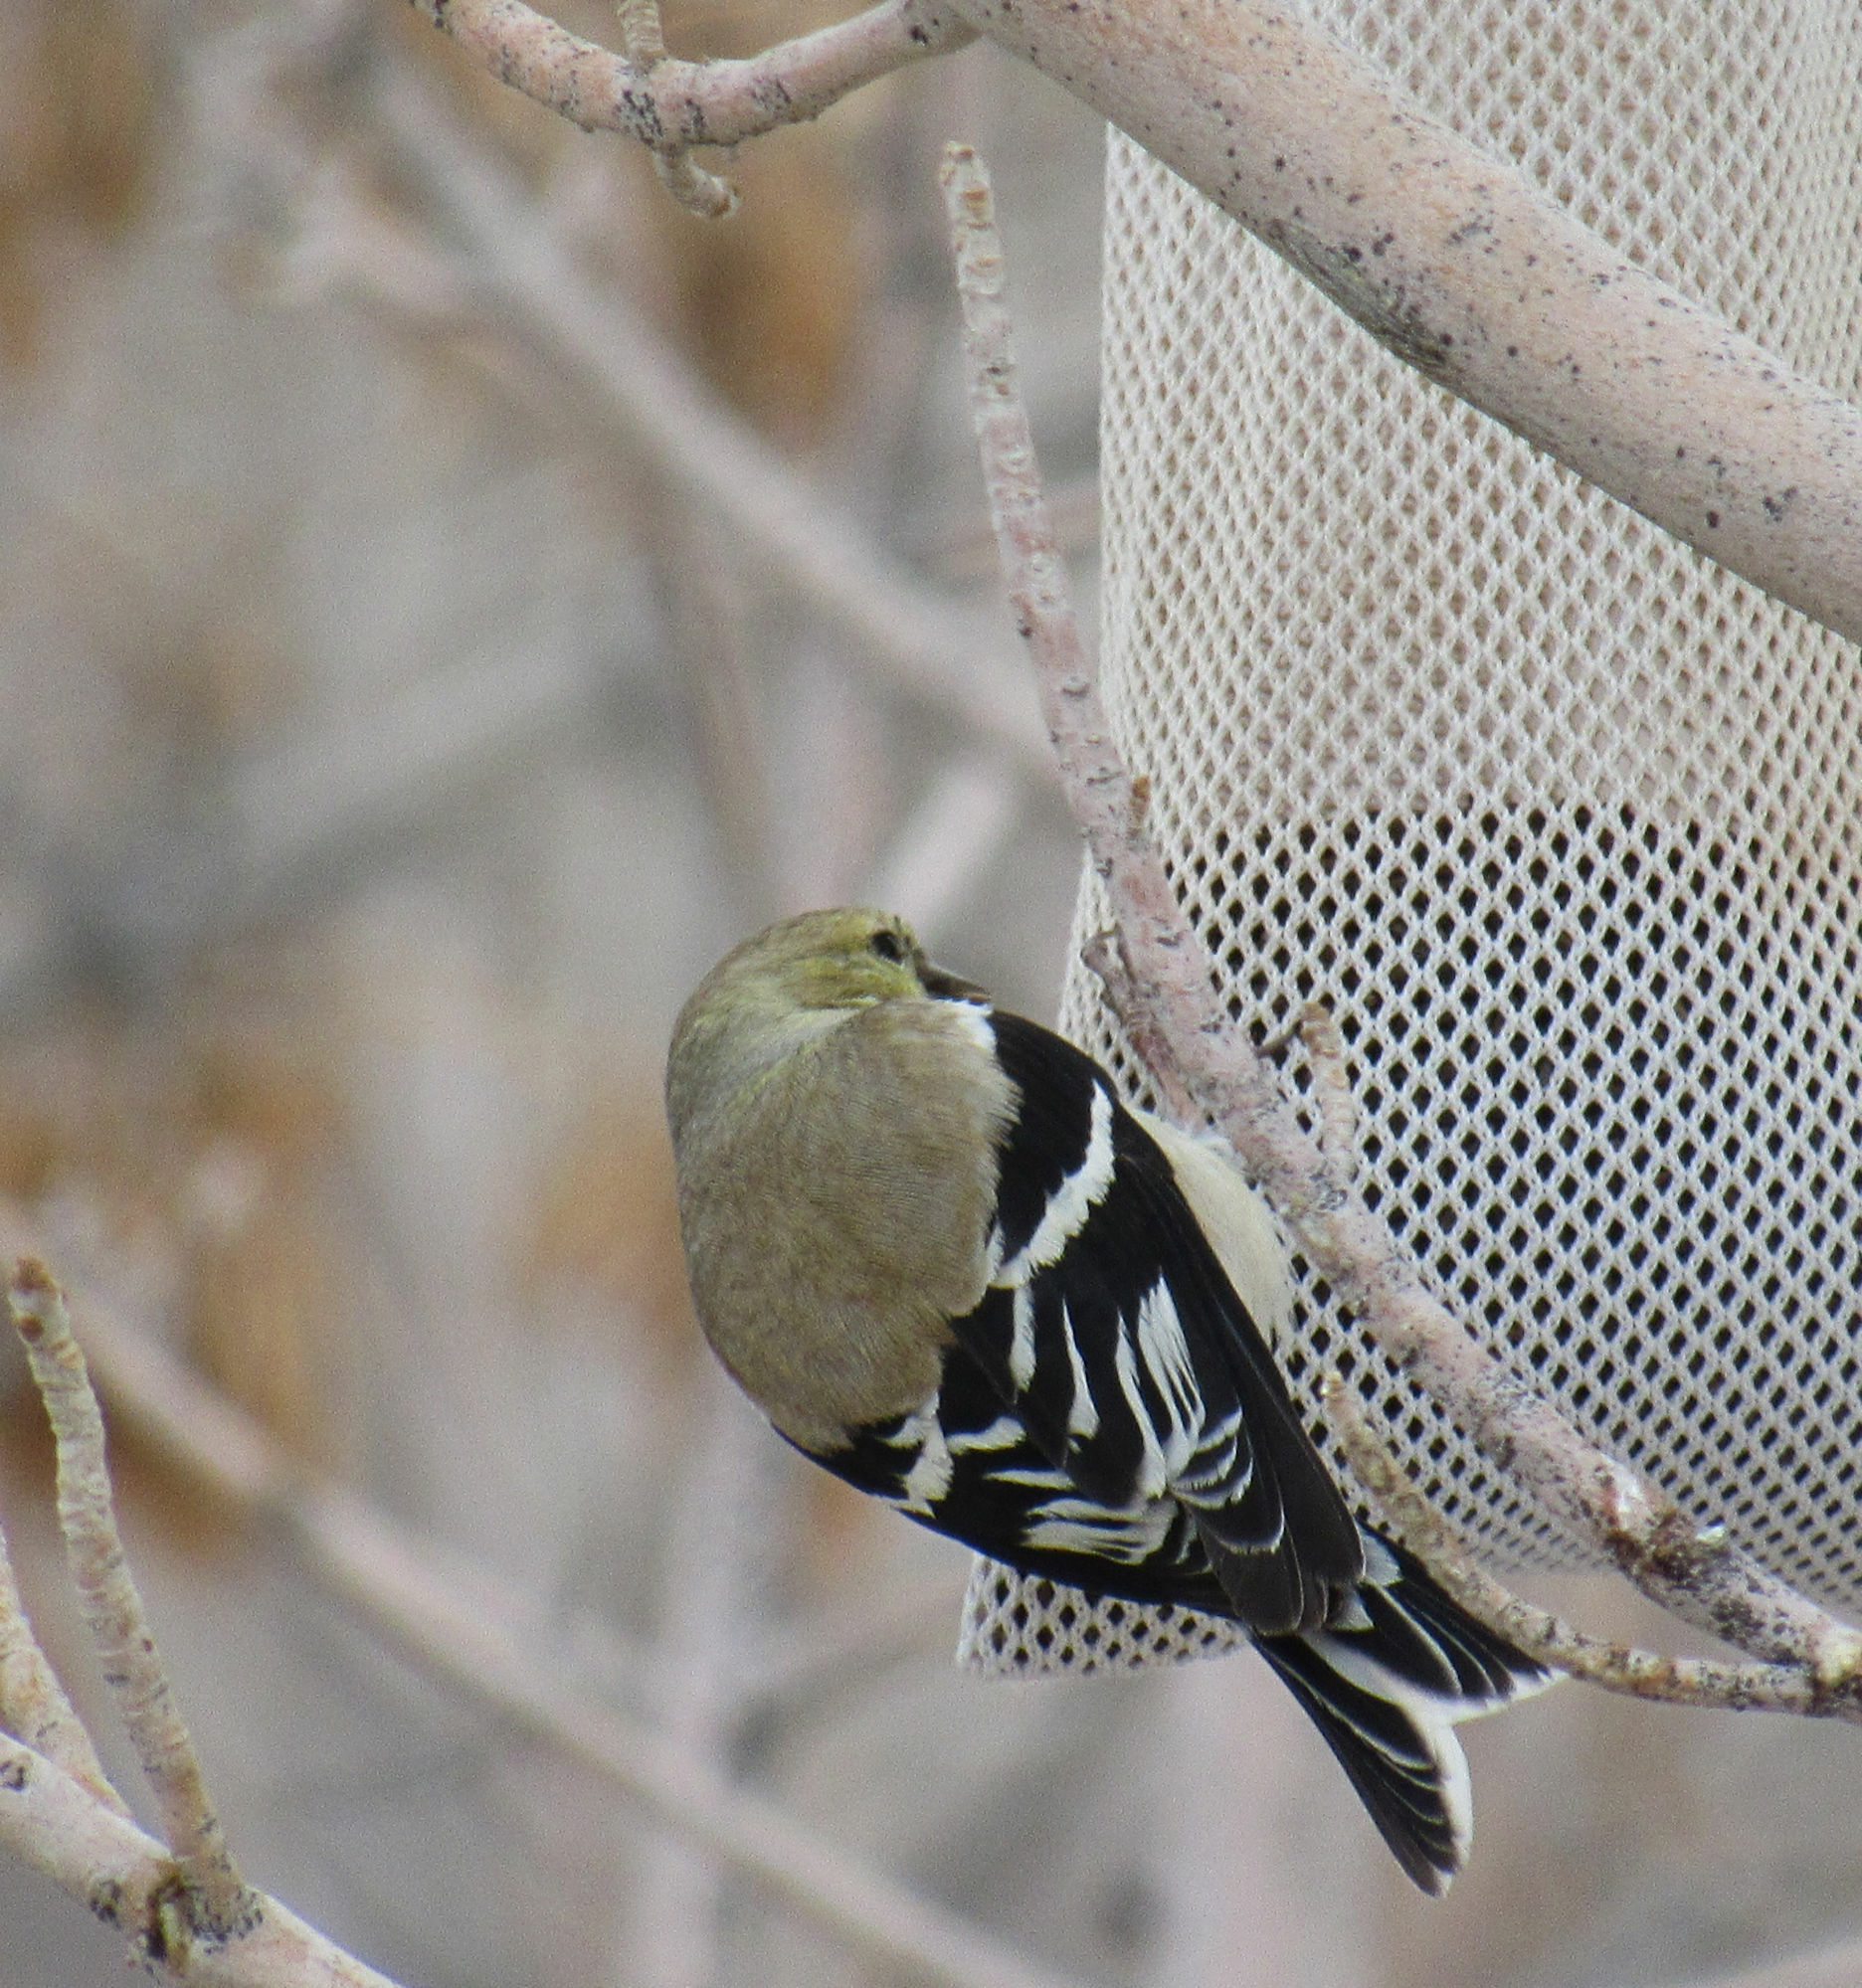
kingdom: Animalia
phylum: Chordata
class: Aves
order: Passeriformes
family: Fringillidae
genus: Spinus
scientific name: Spinus tristis
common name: American goldfinch
